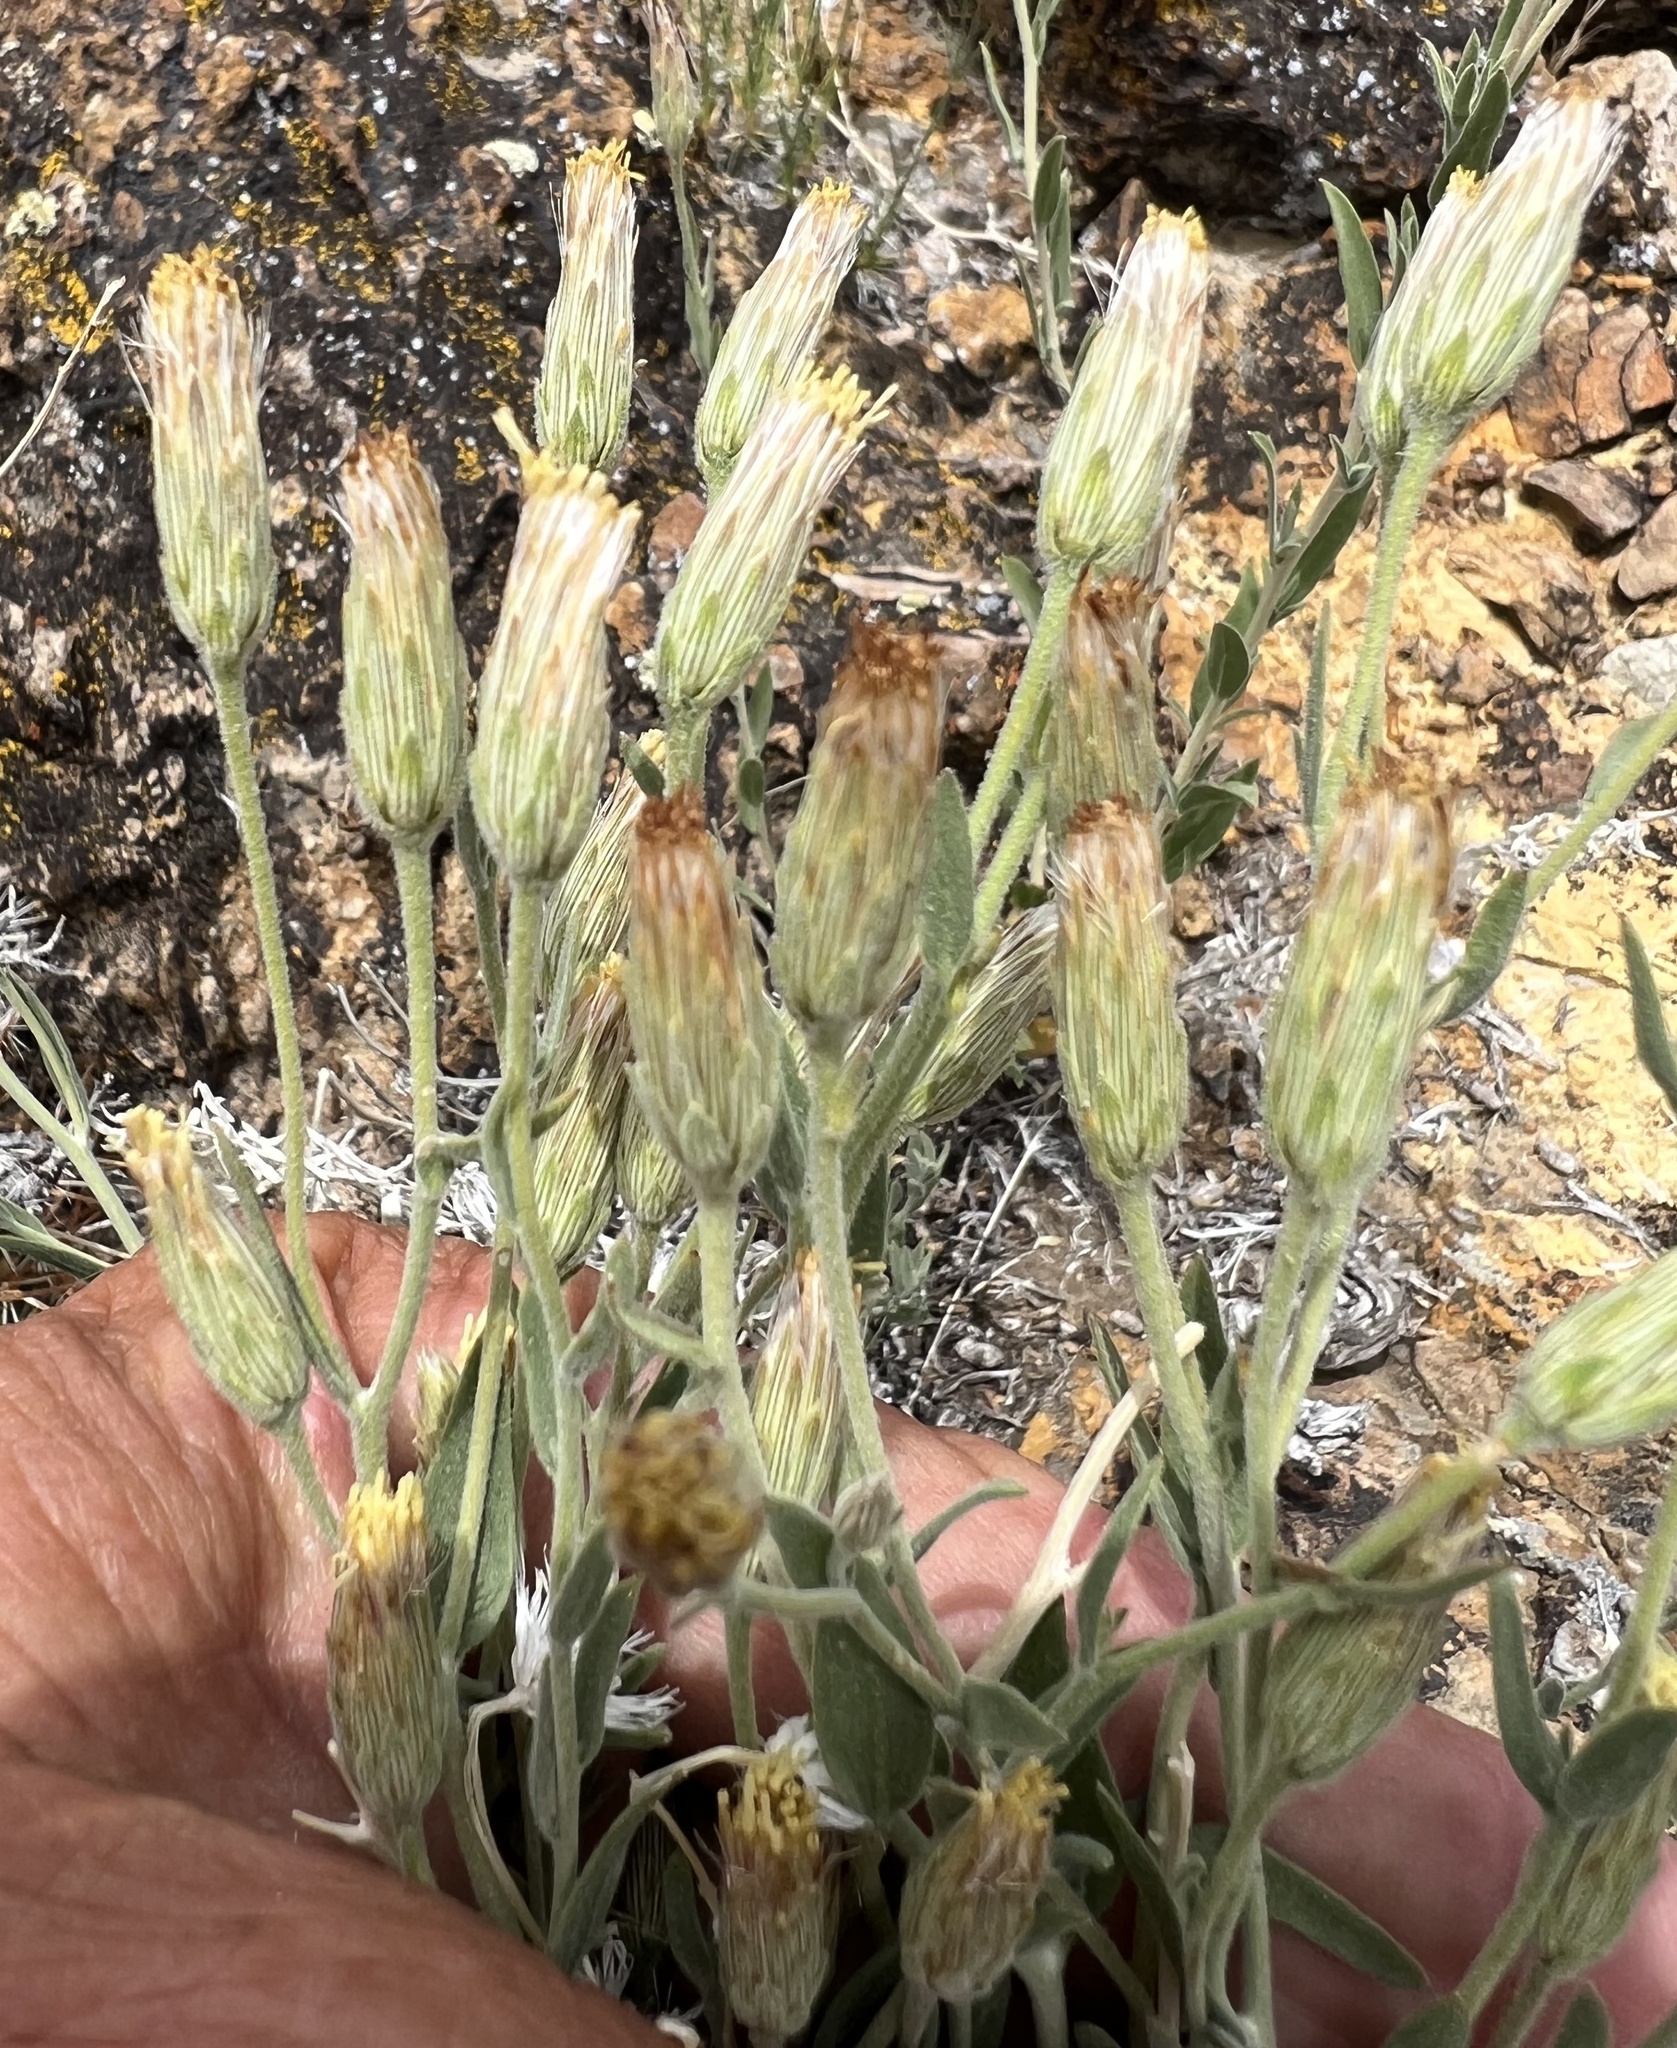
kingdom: Plantae
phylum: Tracheophyta
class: Magnoliopsida
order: Asterales
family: Asteraceae
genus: Brickellia
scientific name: Brickellia oblongifolia
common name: Mojave brickellbush
